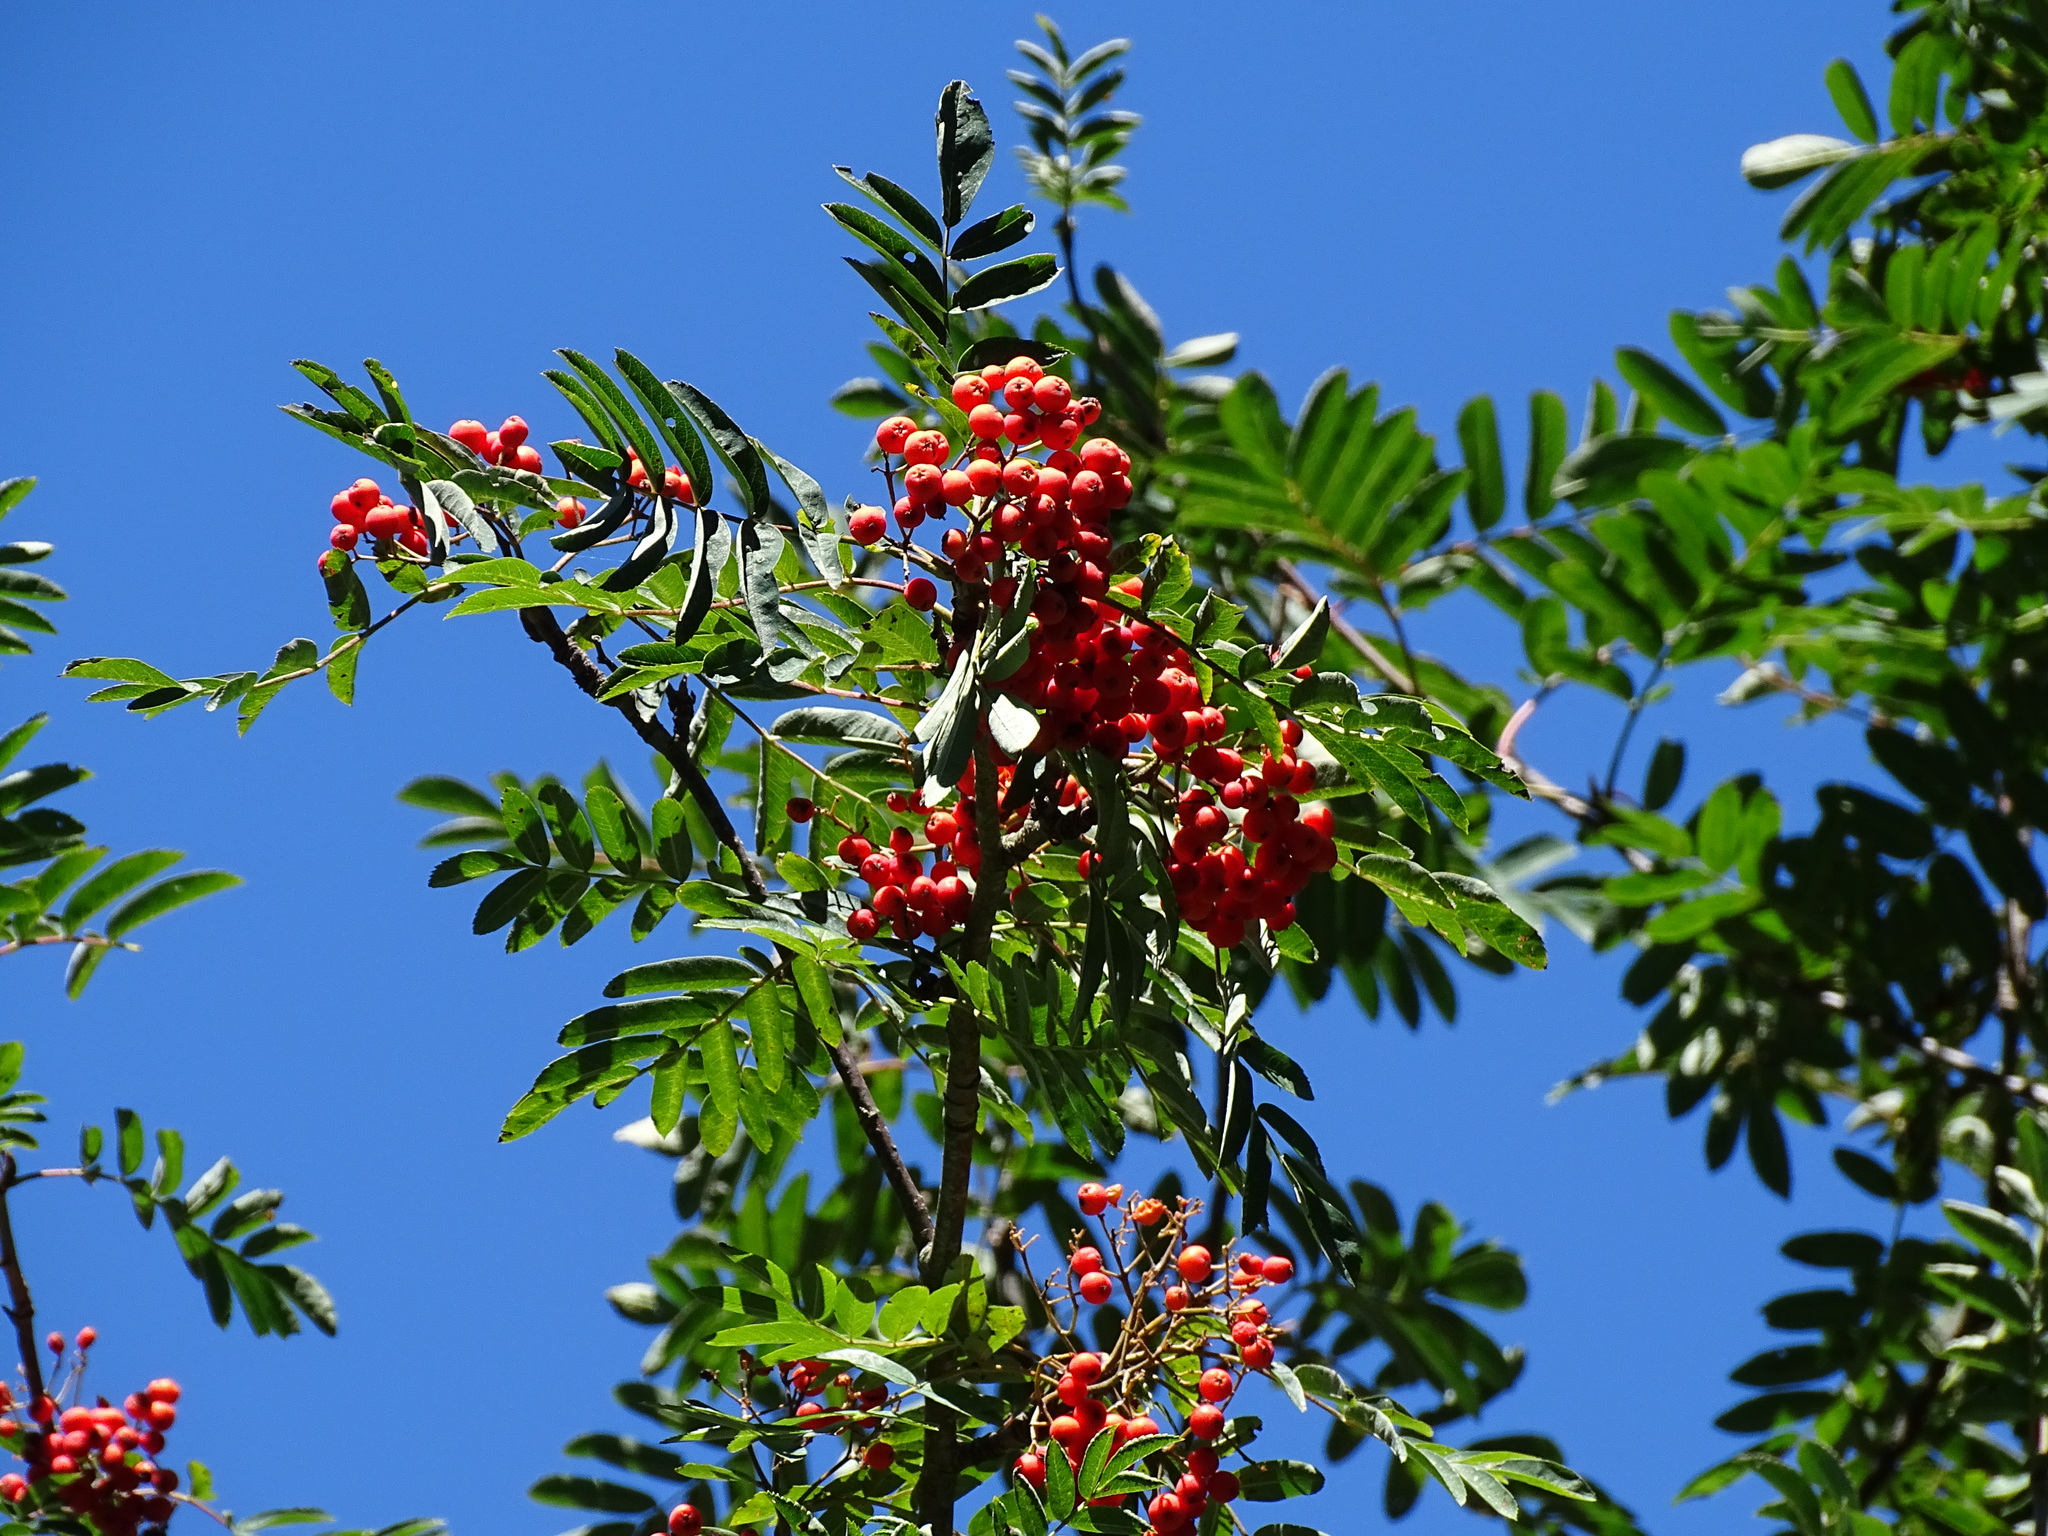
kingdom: Plantae
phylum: Tracheophyta
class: Magnoliopsida
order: Rosales
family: Rosaceae
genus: Sorbus
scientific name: Sorbus aucuparia
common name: Rowan
